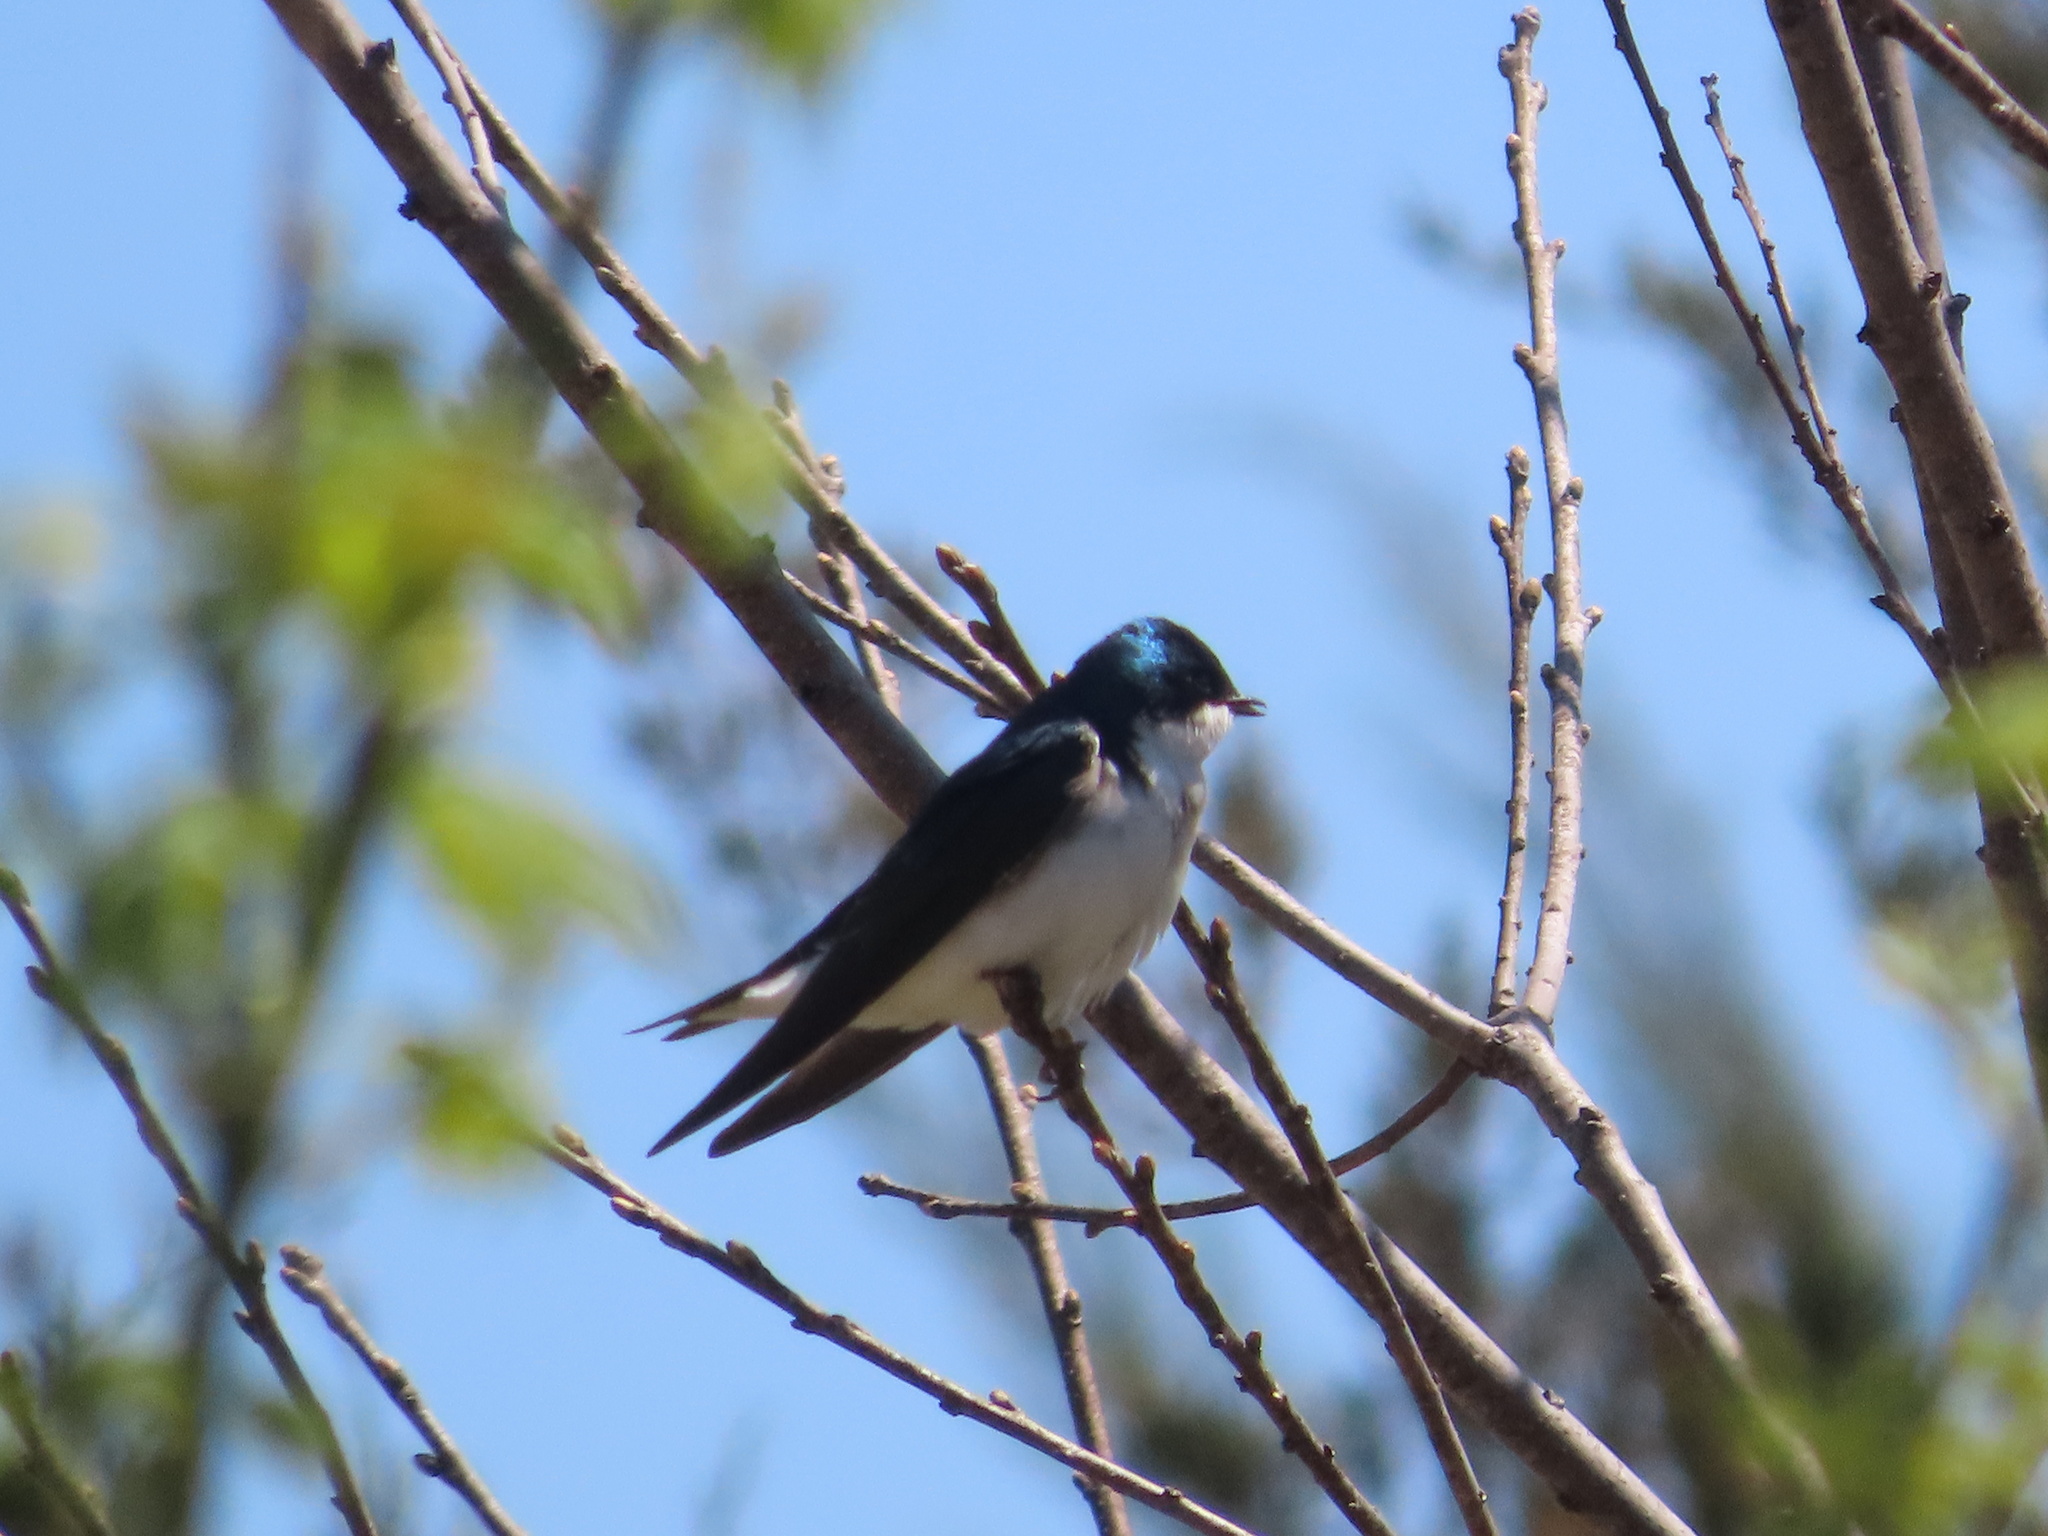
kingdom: Animalia
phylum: Chordata
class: Aves
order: Passeriformes
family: Hirundinidae
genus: Tachycineta
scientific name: Tachycineta bicolor
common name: Tree swallow
